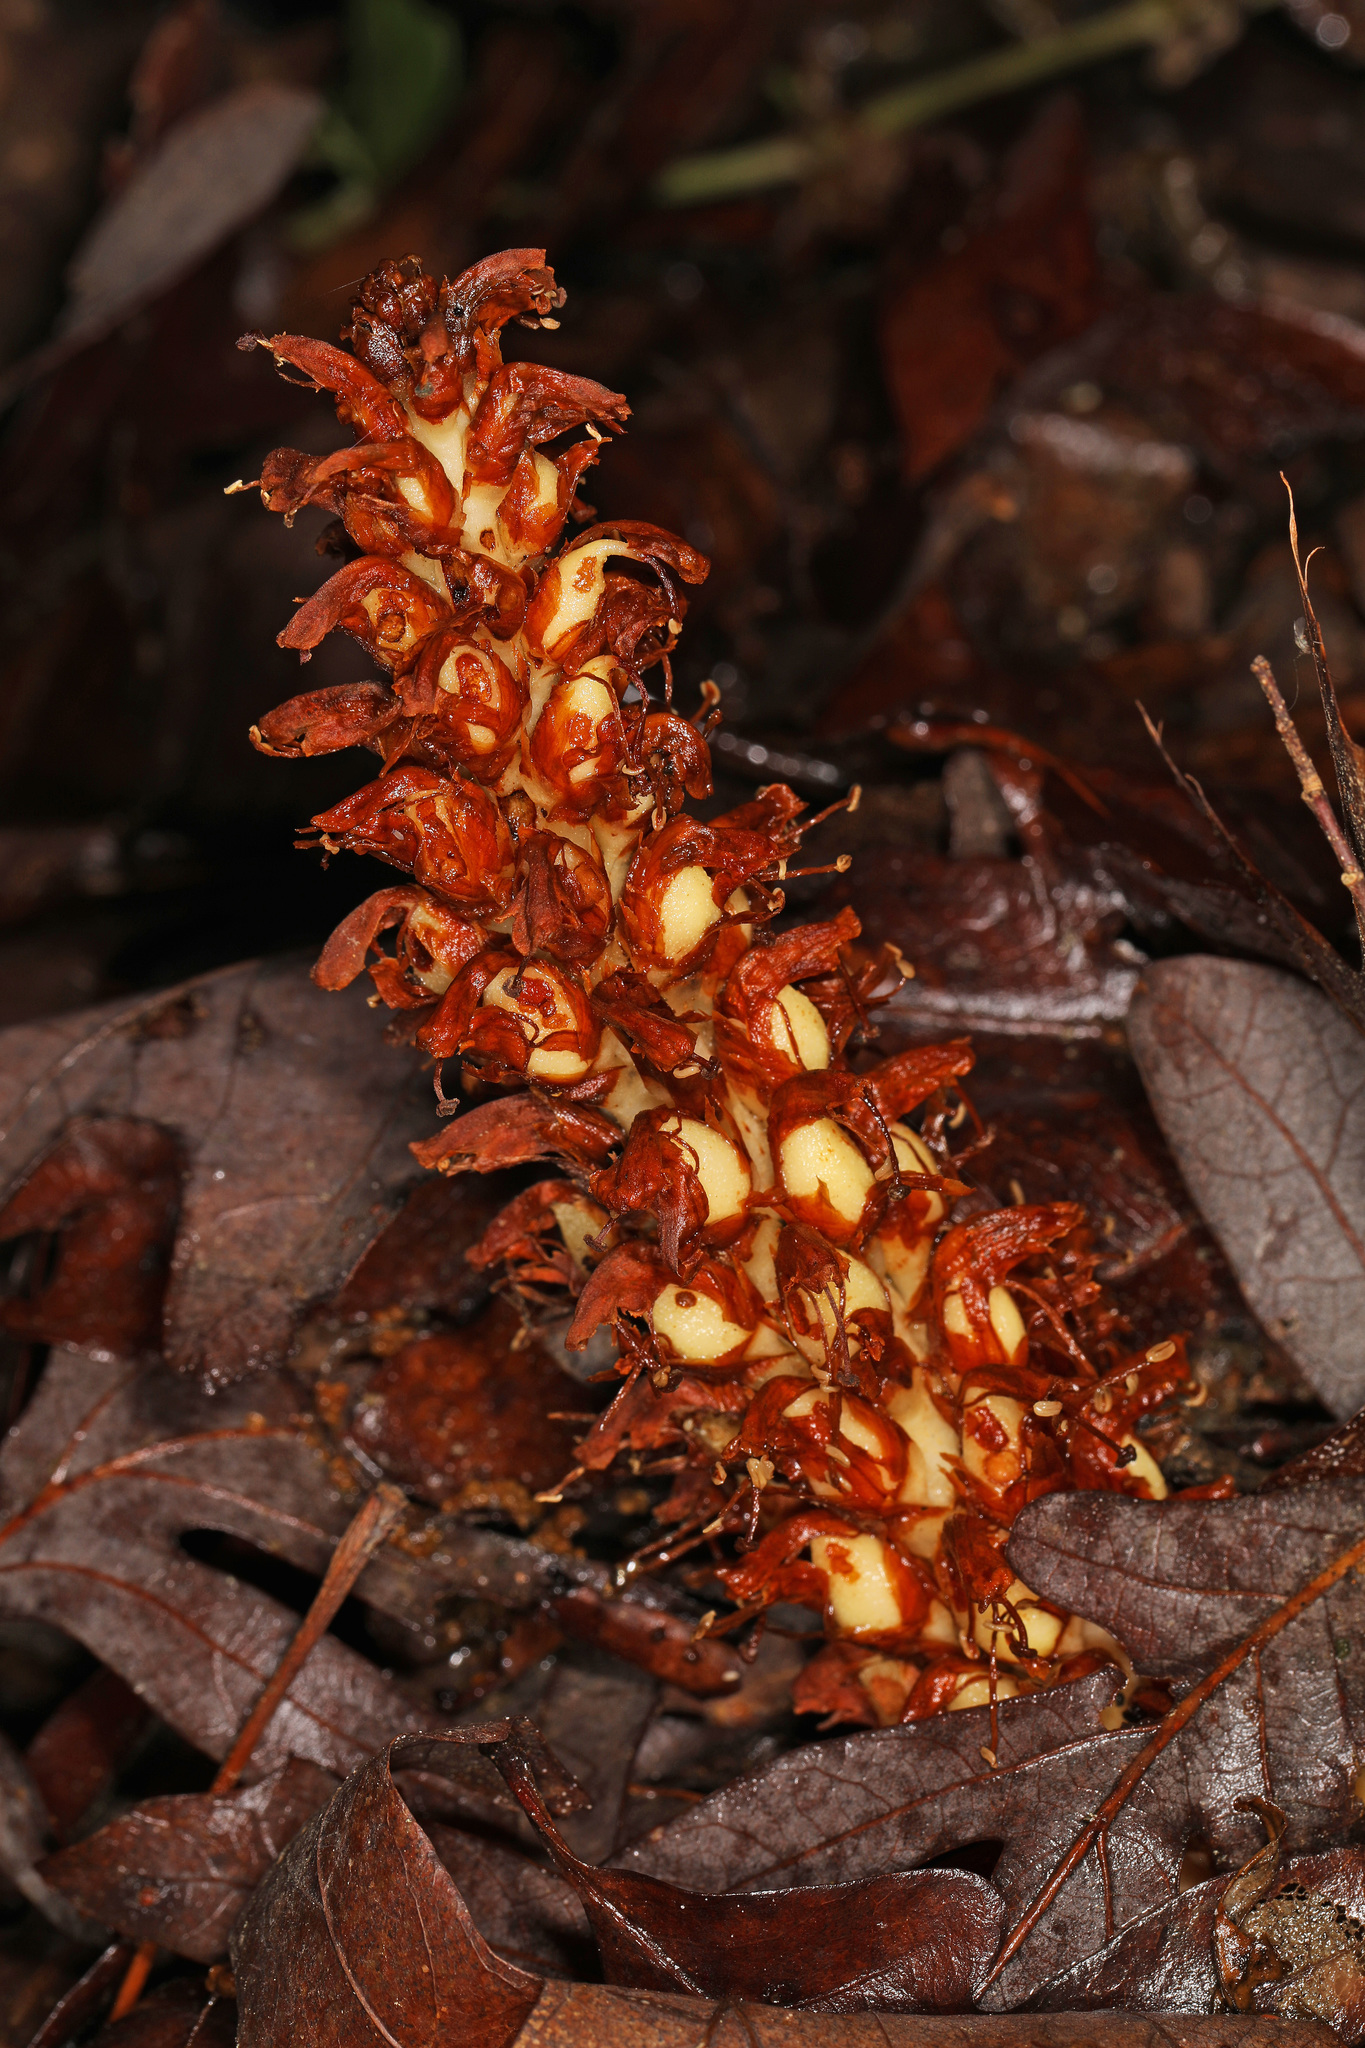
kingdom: Plantae
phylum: Tracheophyta
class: Magnoliopsida
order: Lamiales
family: Orobanchaceae
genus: Conopholis
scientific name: Conopholis americana
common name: American cancer-root
